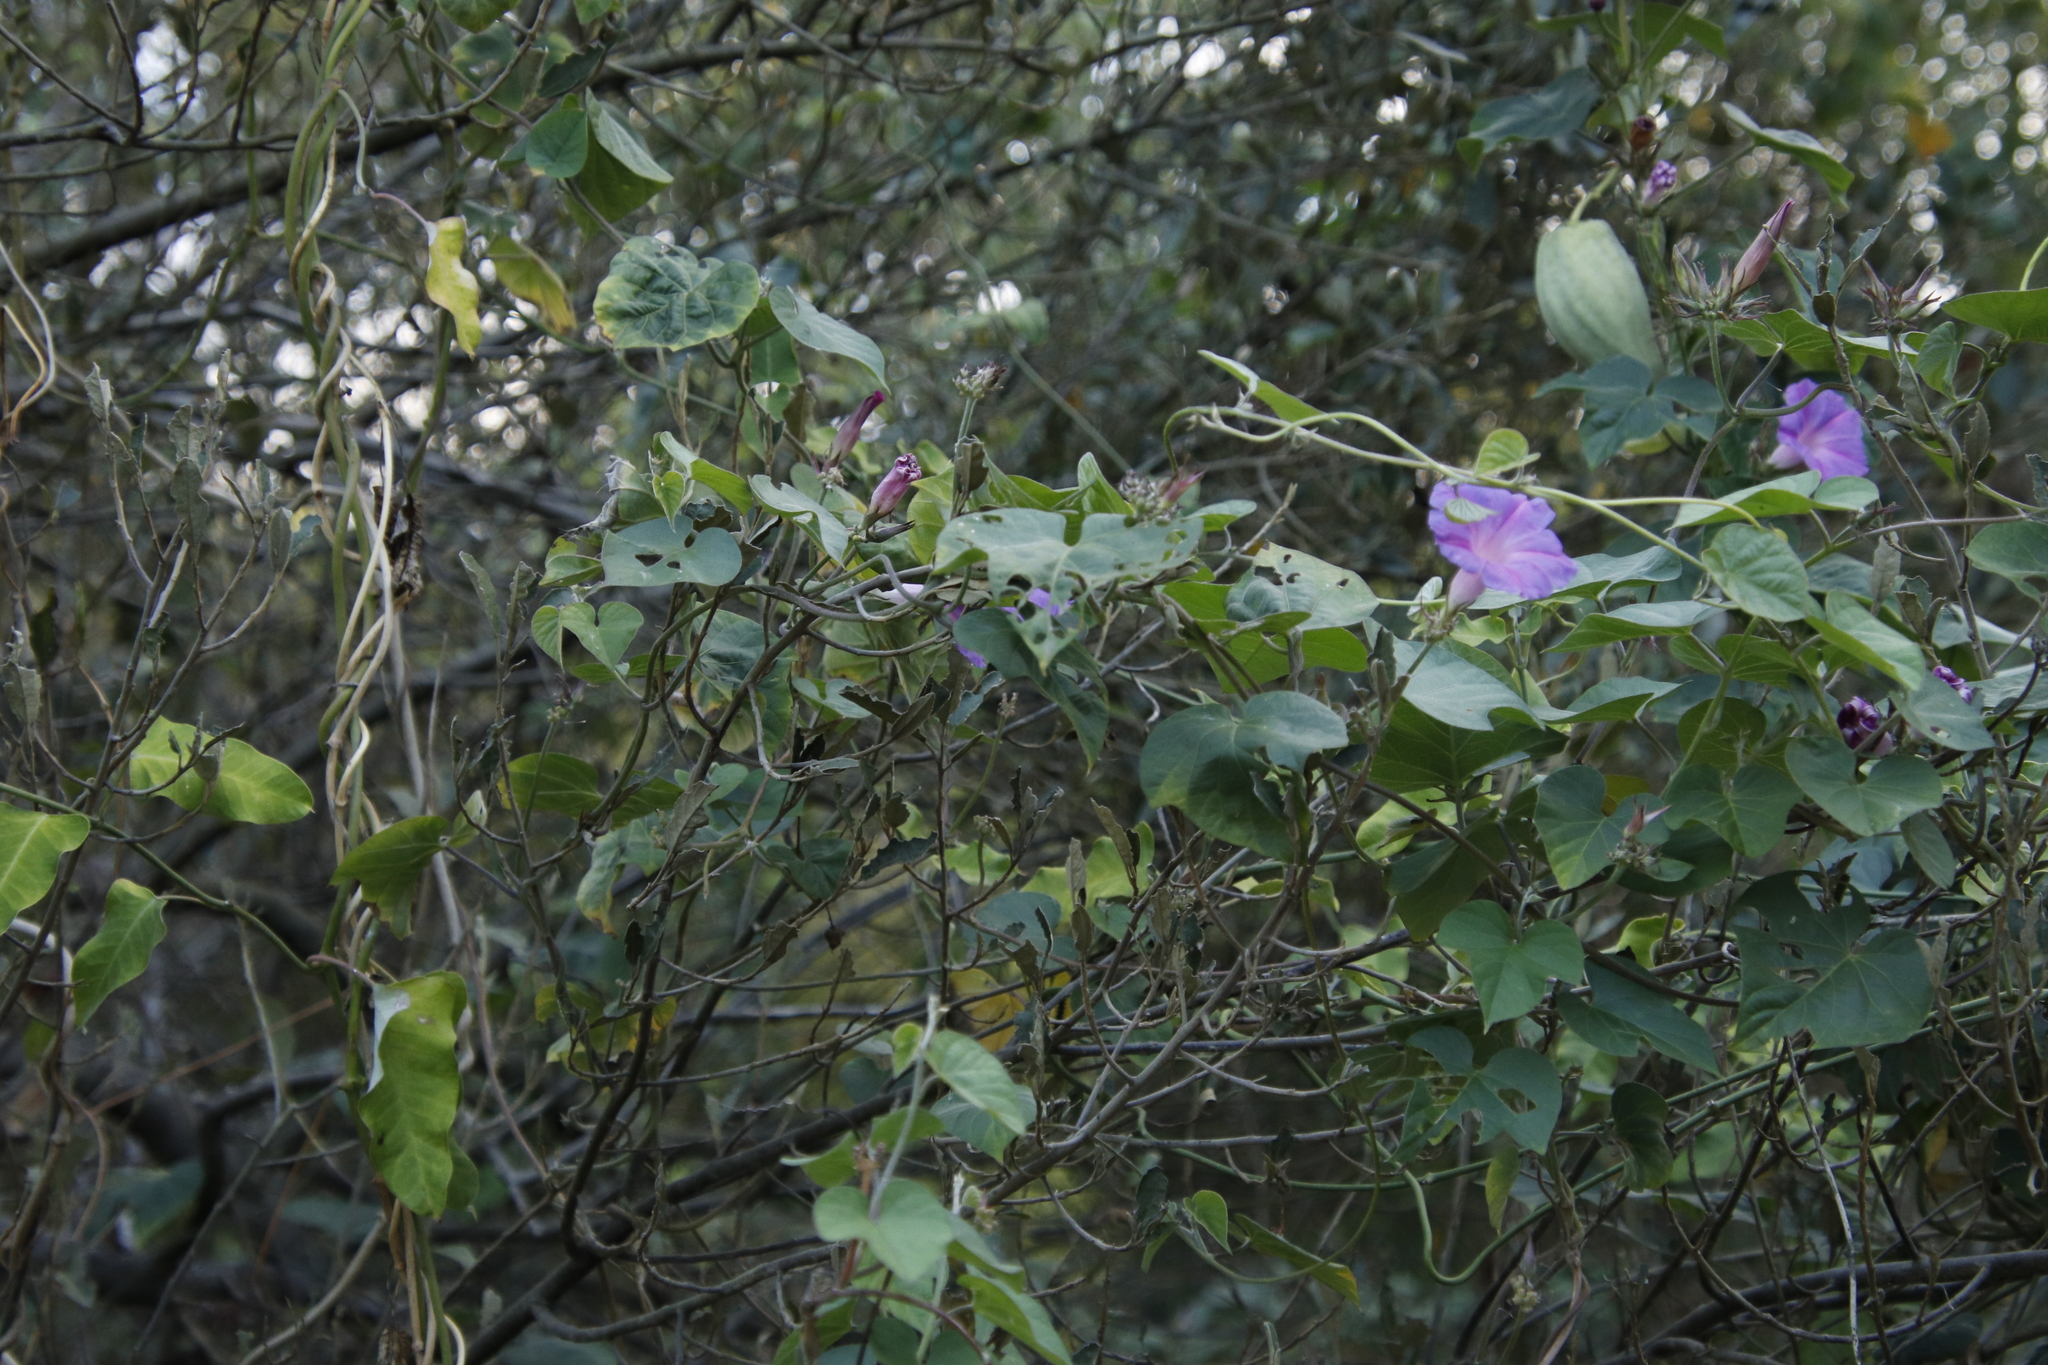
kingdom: Plantae
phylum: Tracheophyta
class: Magnoliopsida
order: Gentianales
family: Apocynaceae
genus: Araujia
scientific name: Araujia sericifera
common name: White bladderflower
